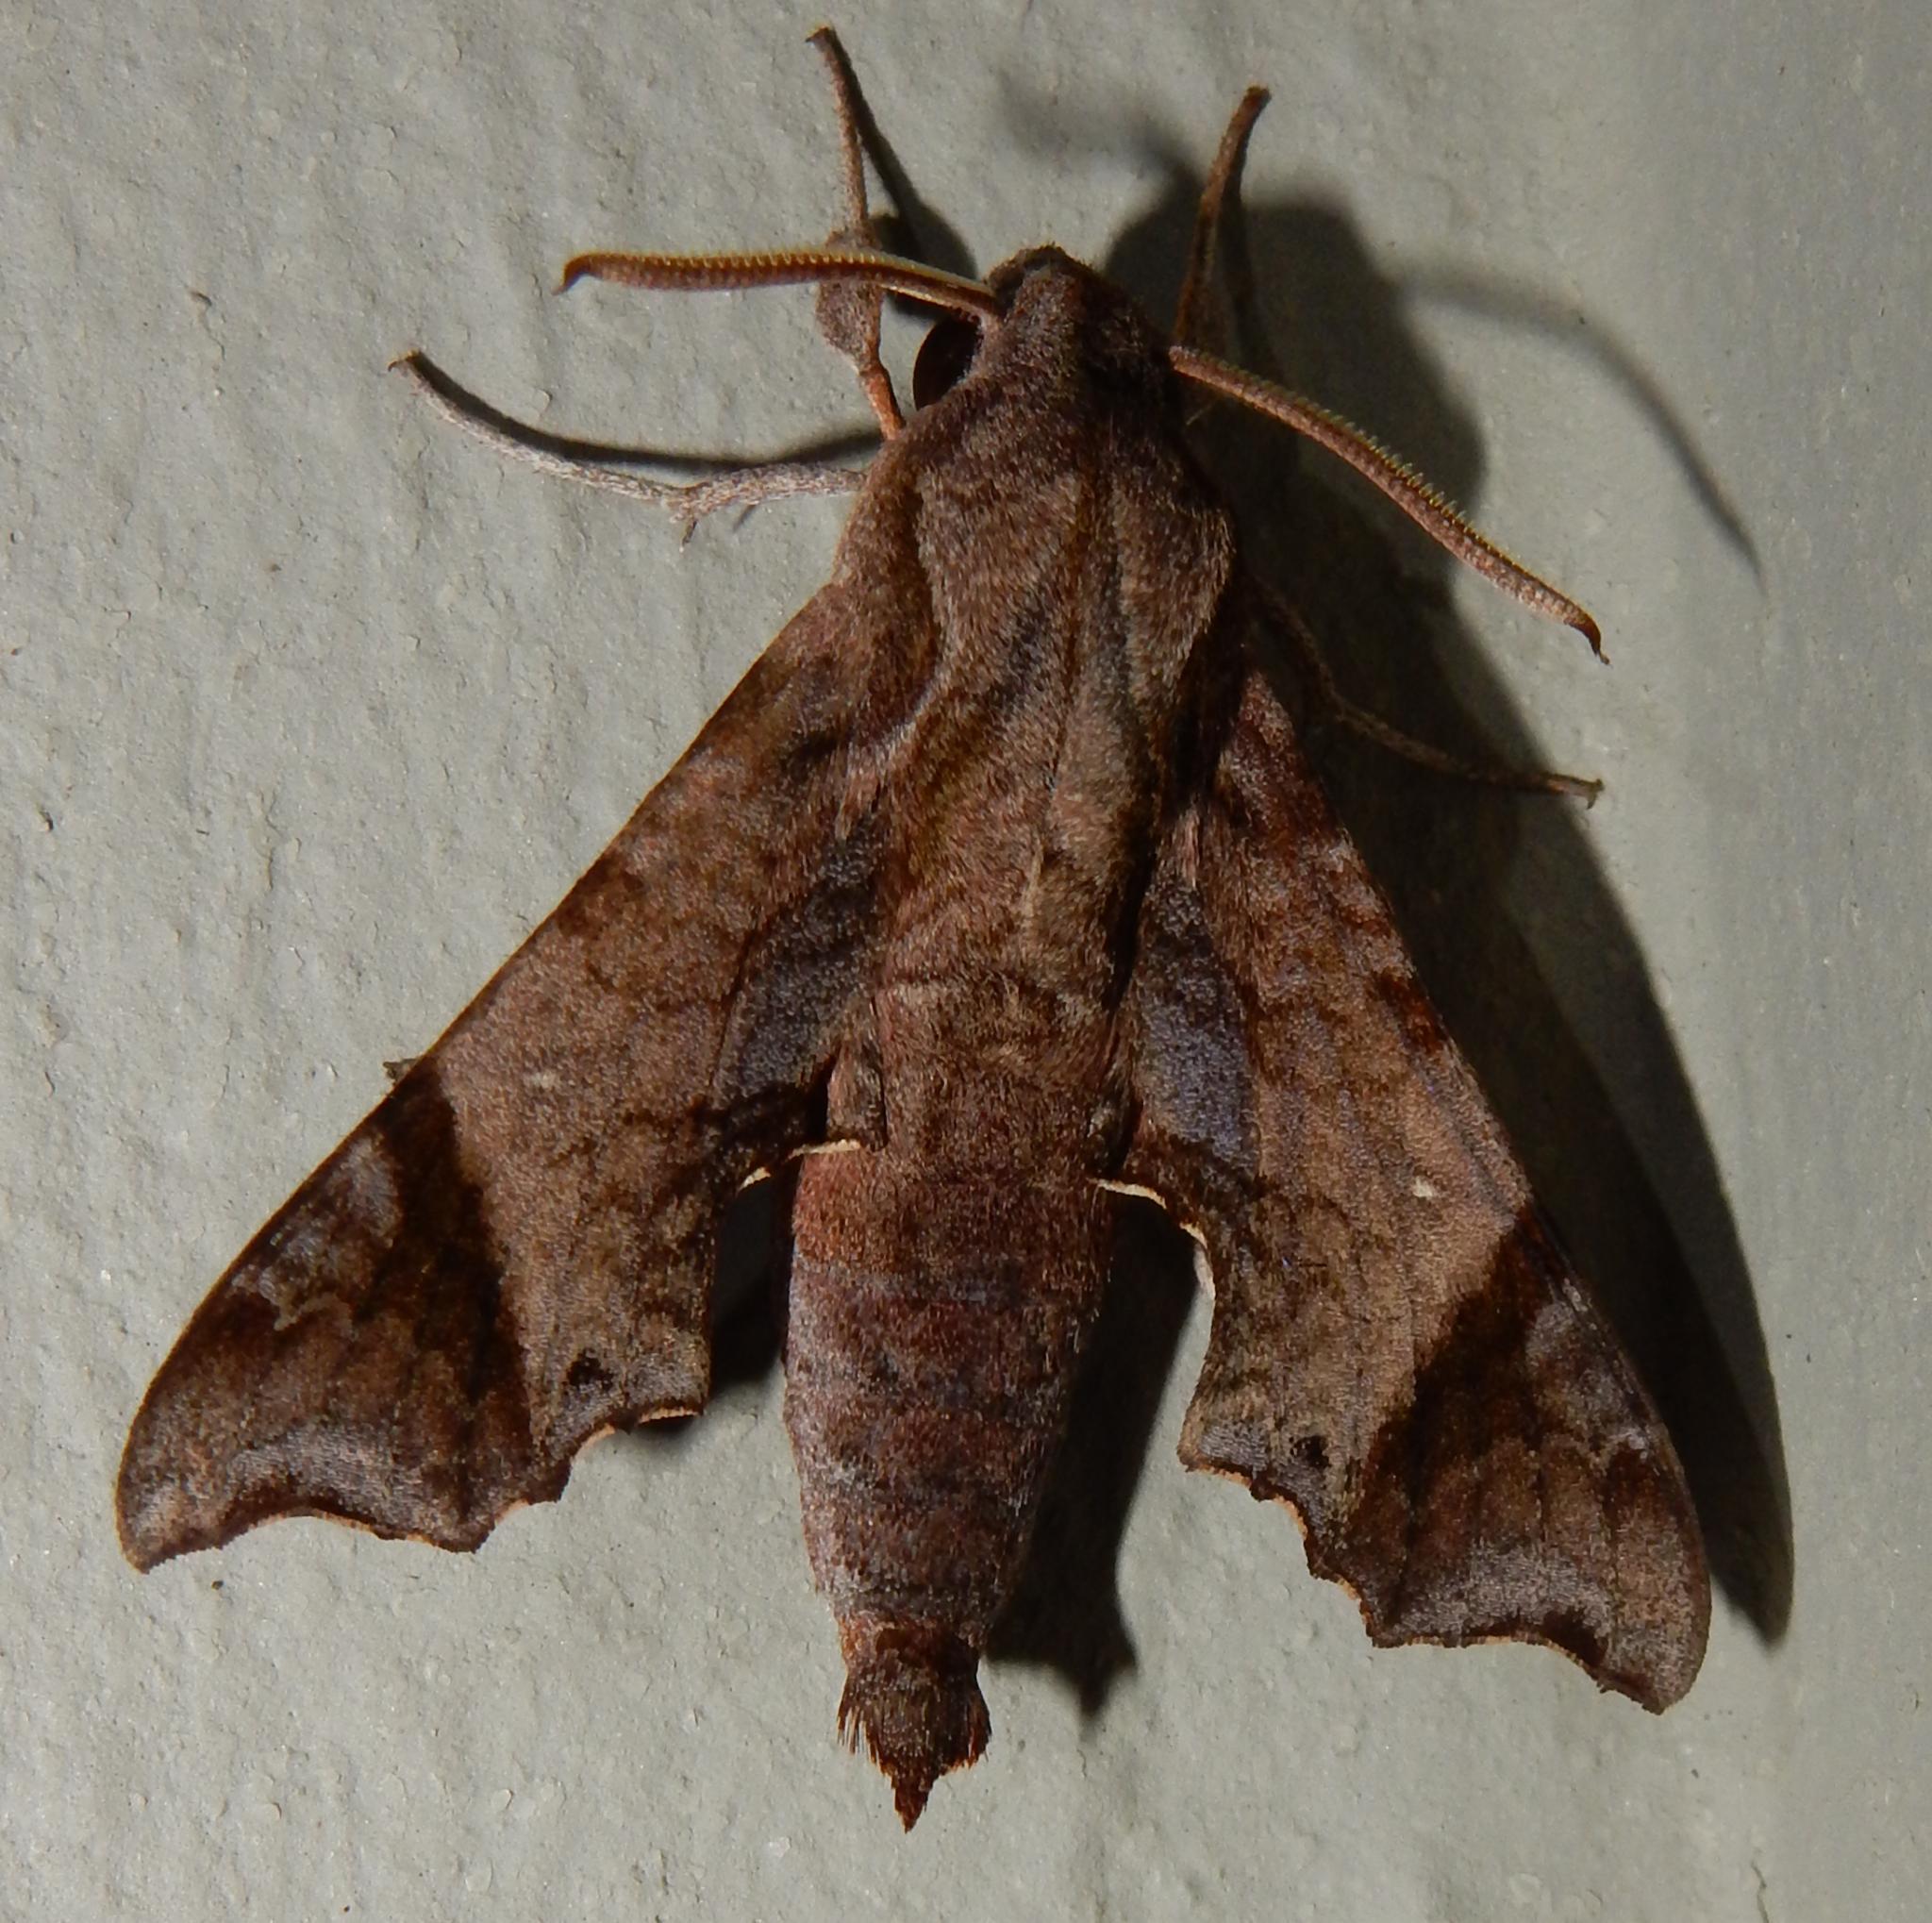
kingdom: Animalia
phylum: Arthropoda
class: Insecta
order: Lepidoptera
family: Sphingidae
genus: Temnora
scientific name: Temnora pylades
